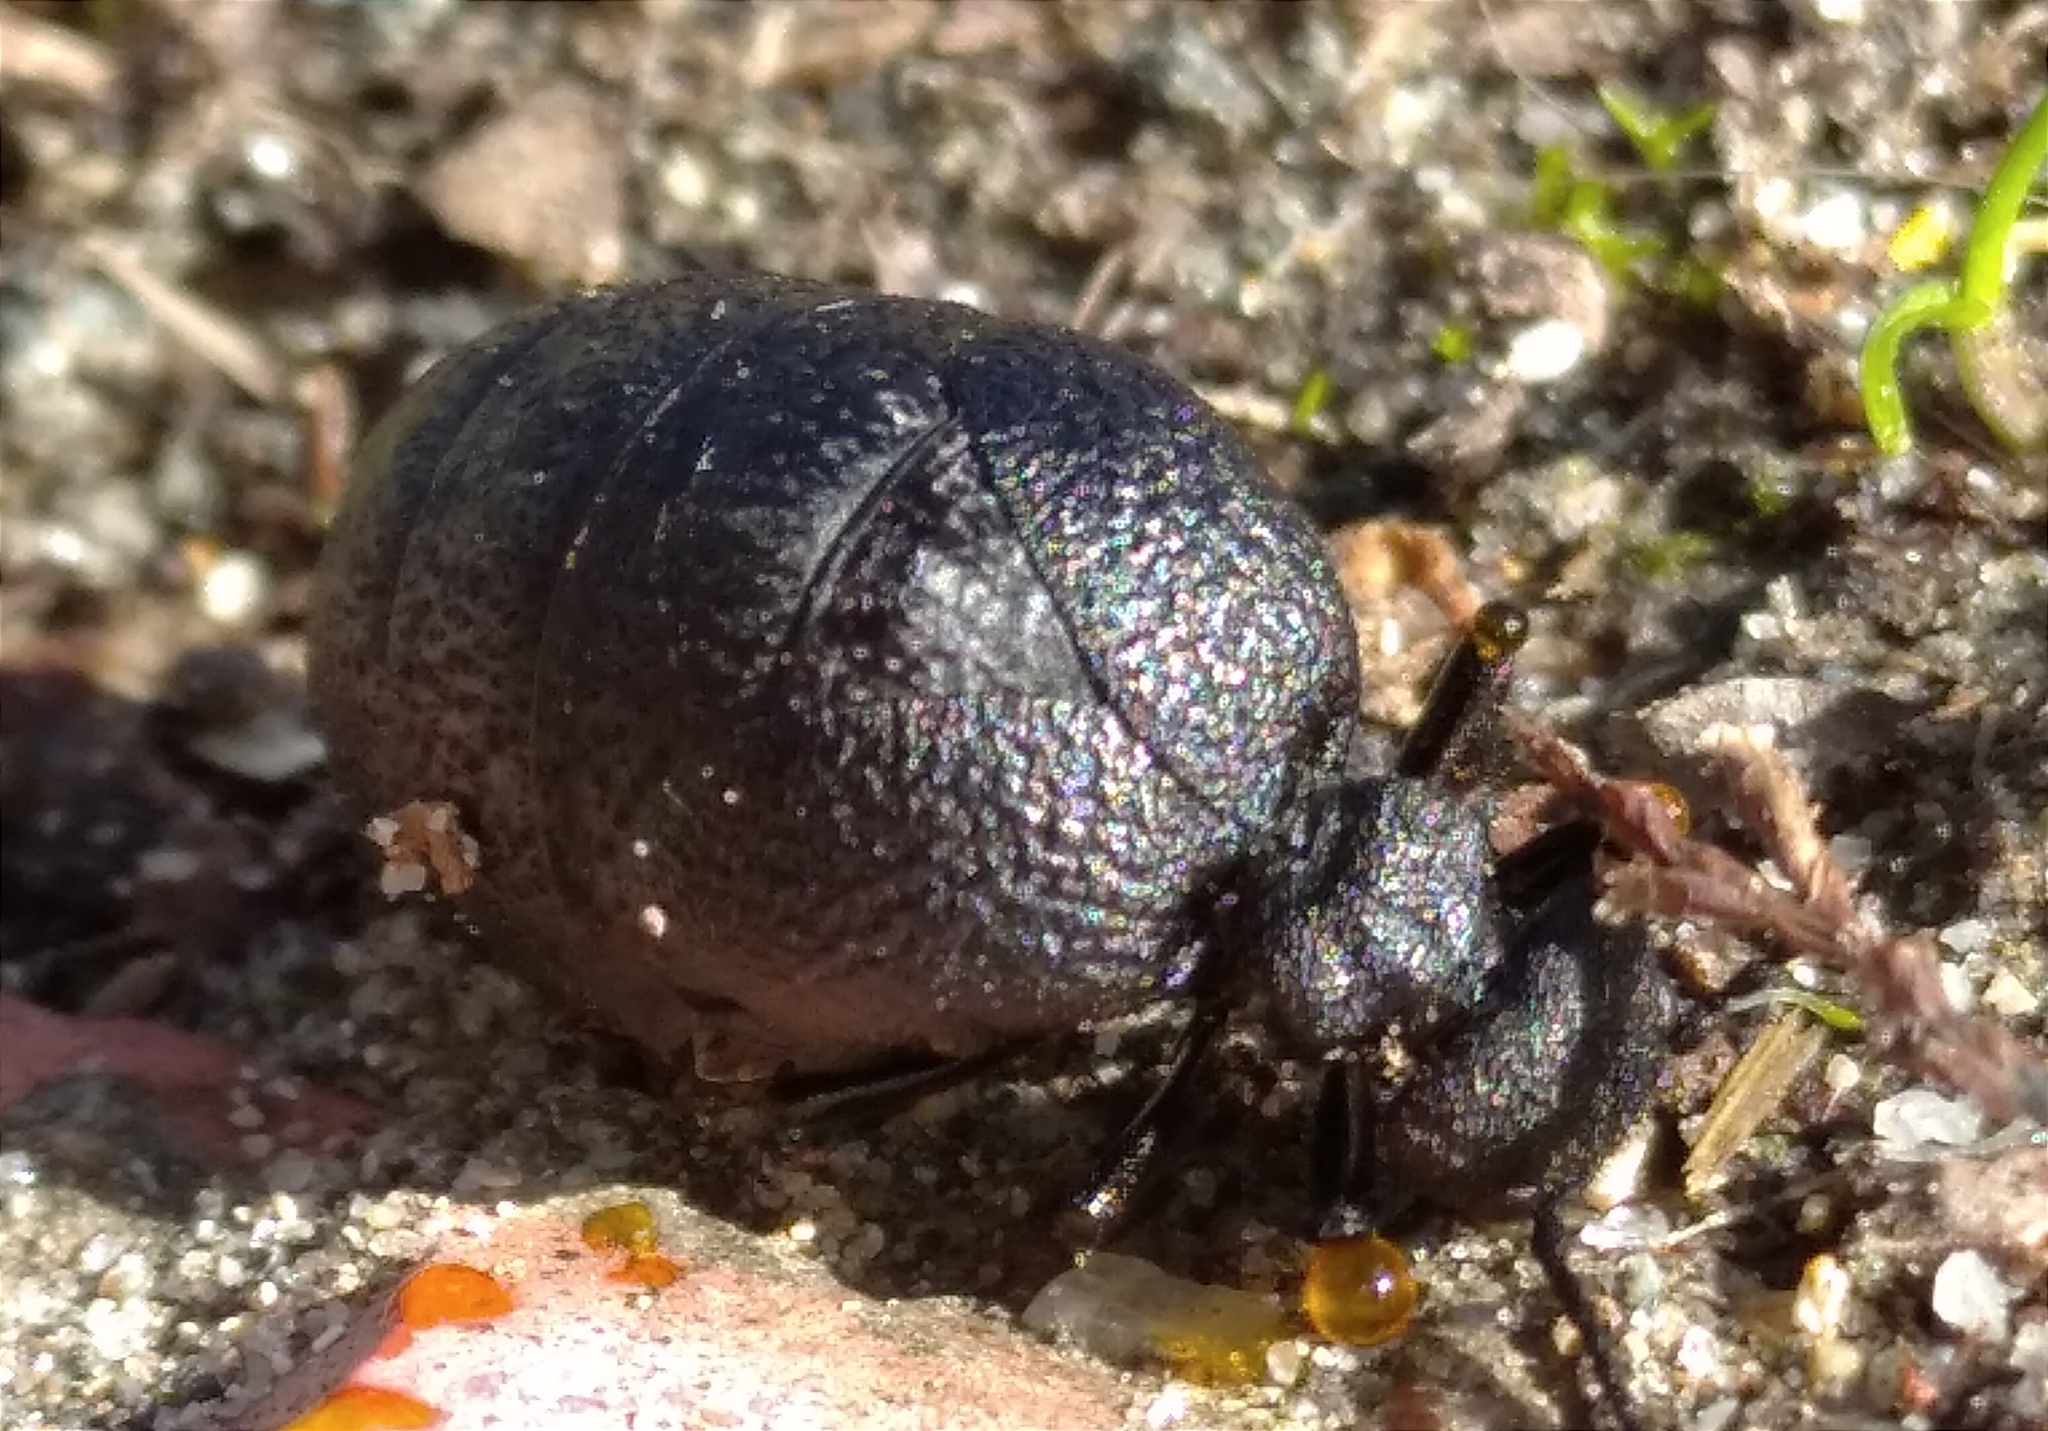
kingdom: Animalia
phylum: Arthropoda
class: Insecta
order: Coleoptera
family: Meloidae
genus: Meloe
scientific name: Meloe rugosus
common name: Rugged oil-beetle
